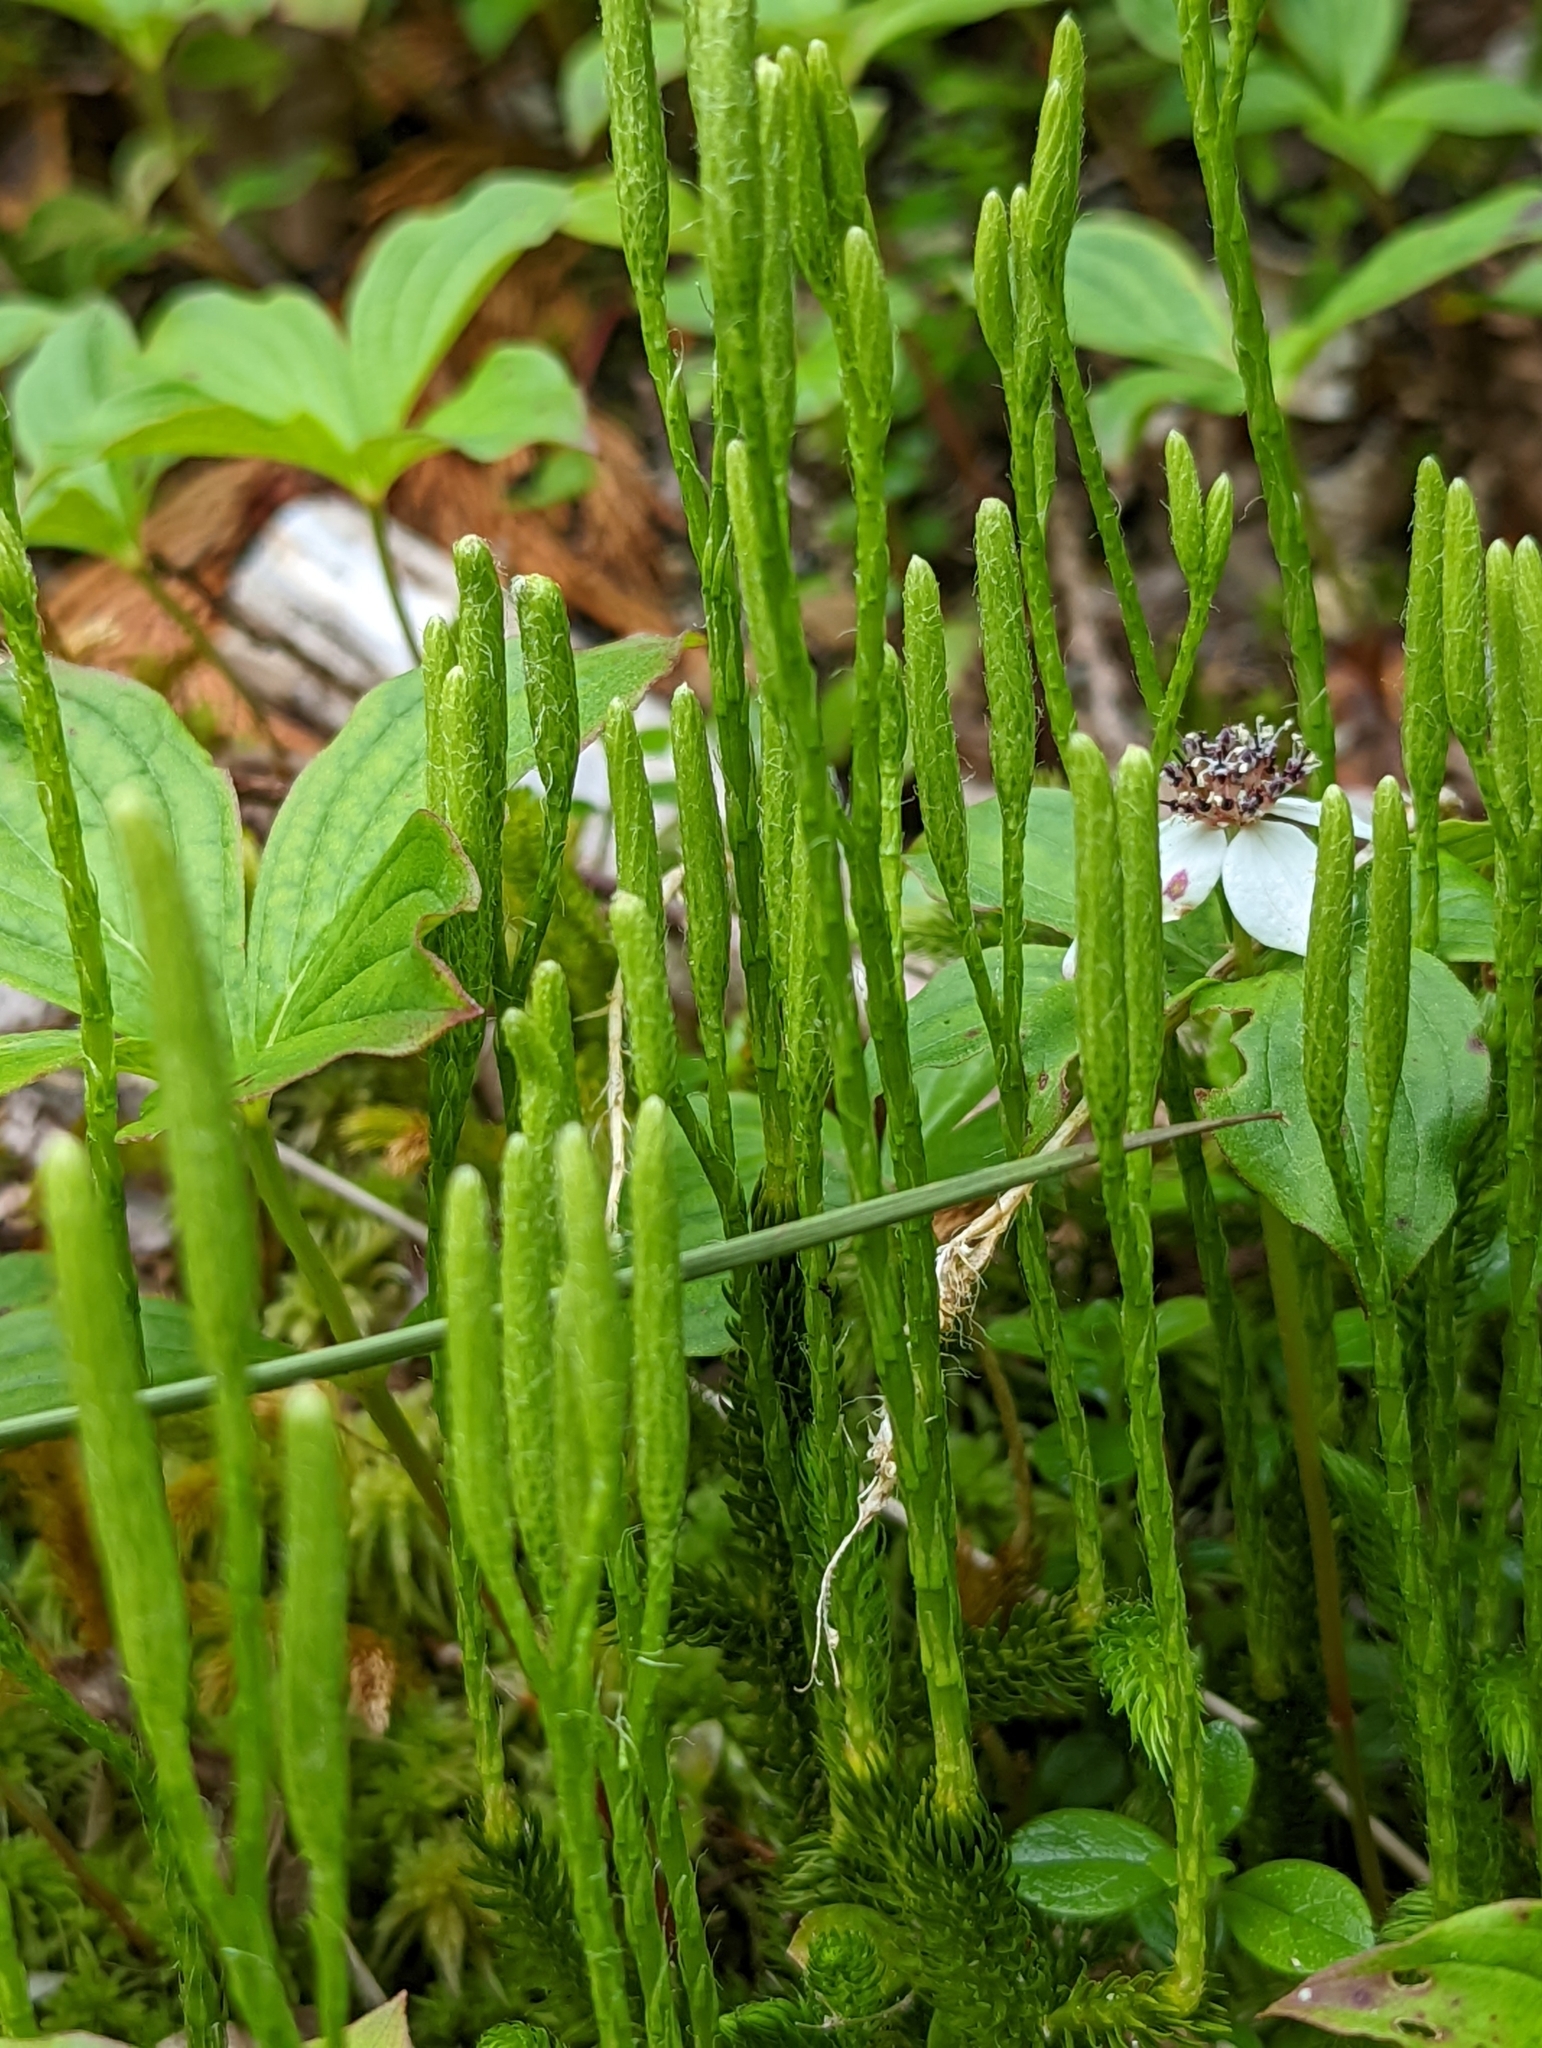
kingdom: Plantae
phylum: Tracheophyta
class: Lycopodiopsida
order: Lycopodiales
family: Lycopodiaceae
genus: Lycopodium
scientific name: Lycopodium clavatum
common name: Stag's-horn clubmoss
